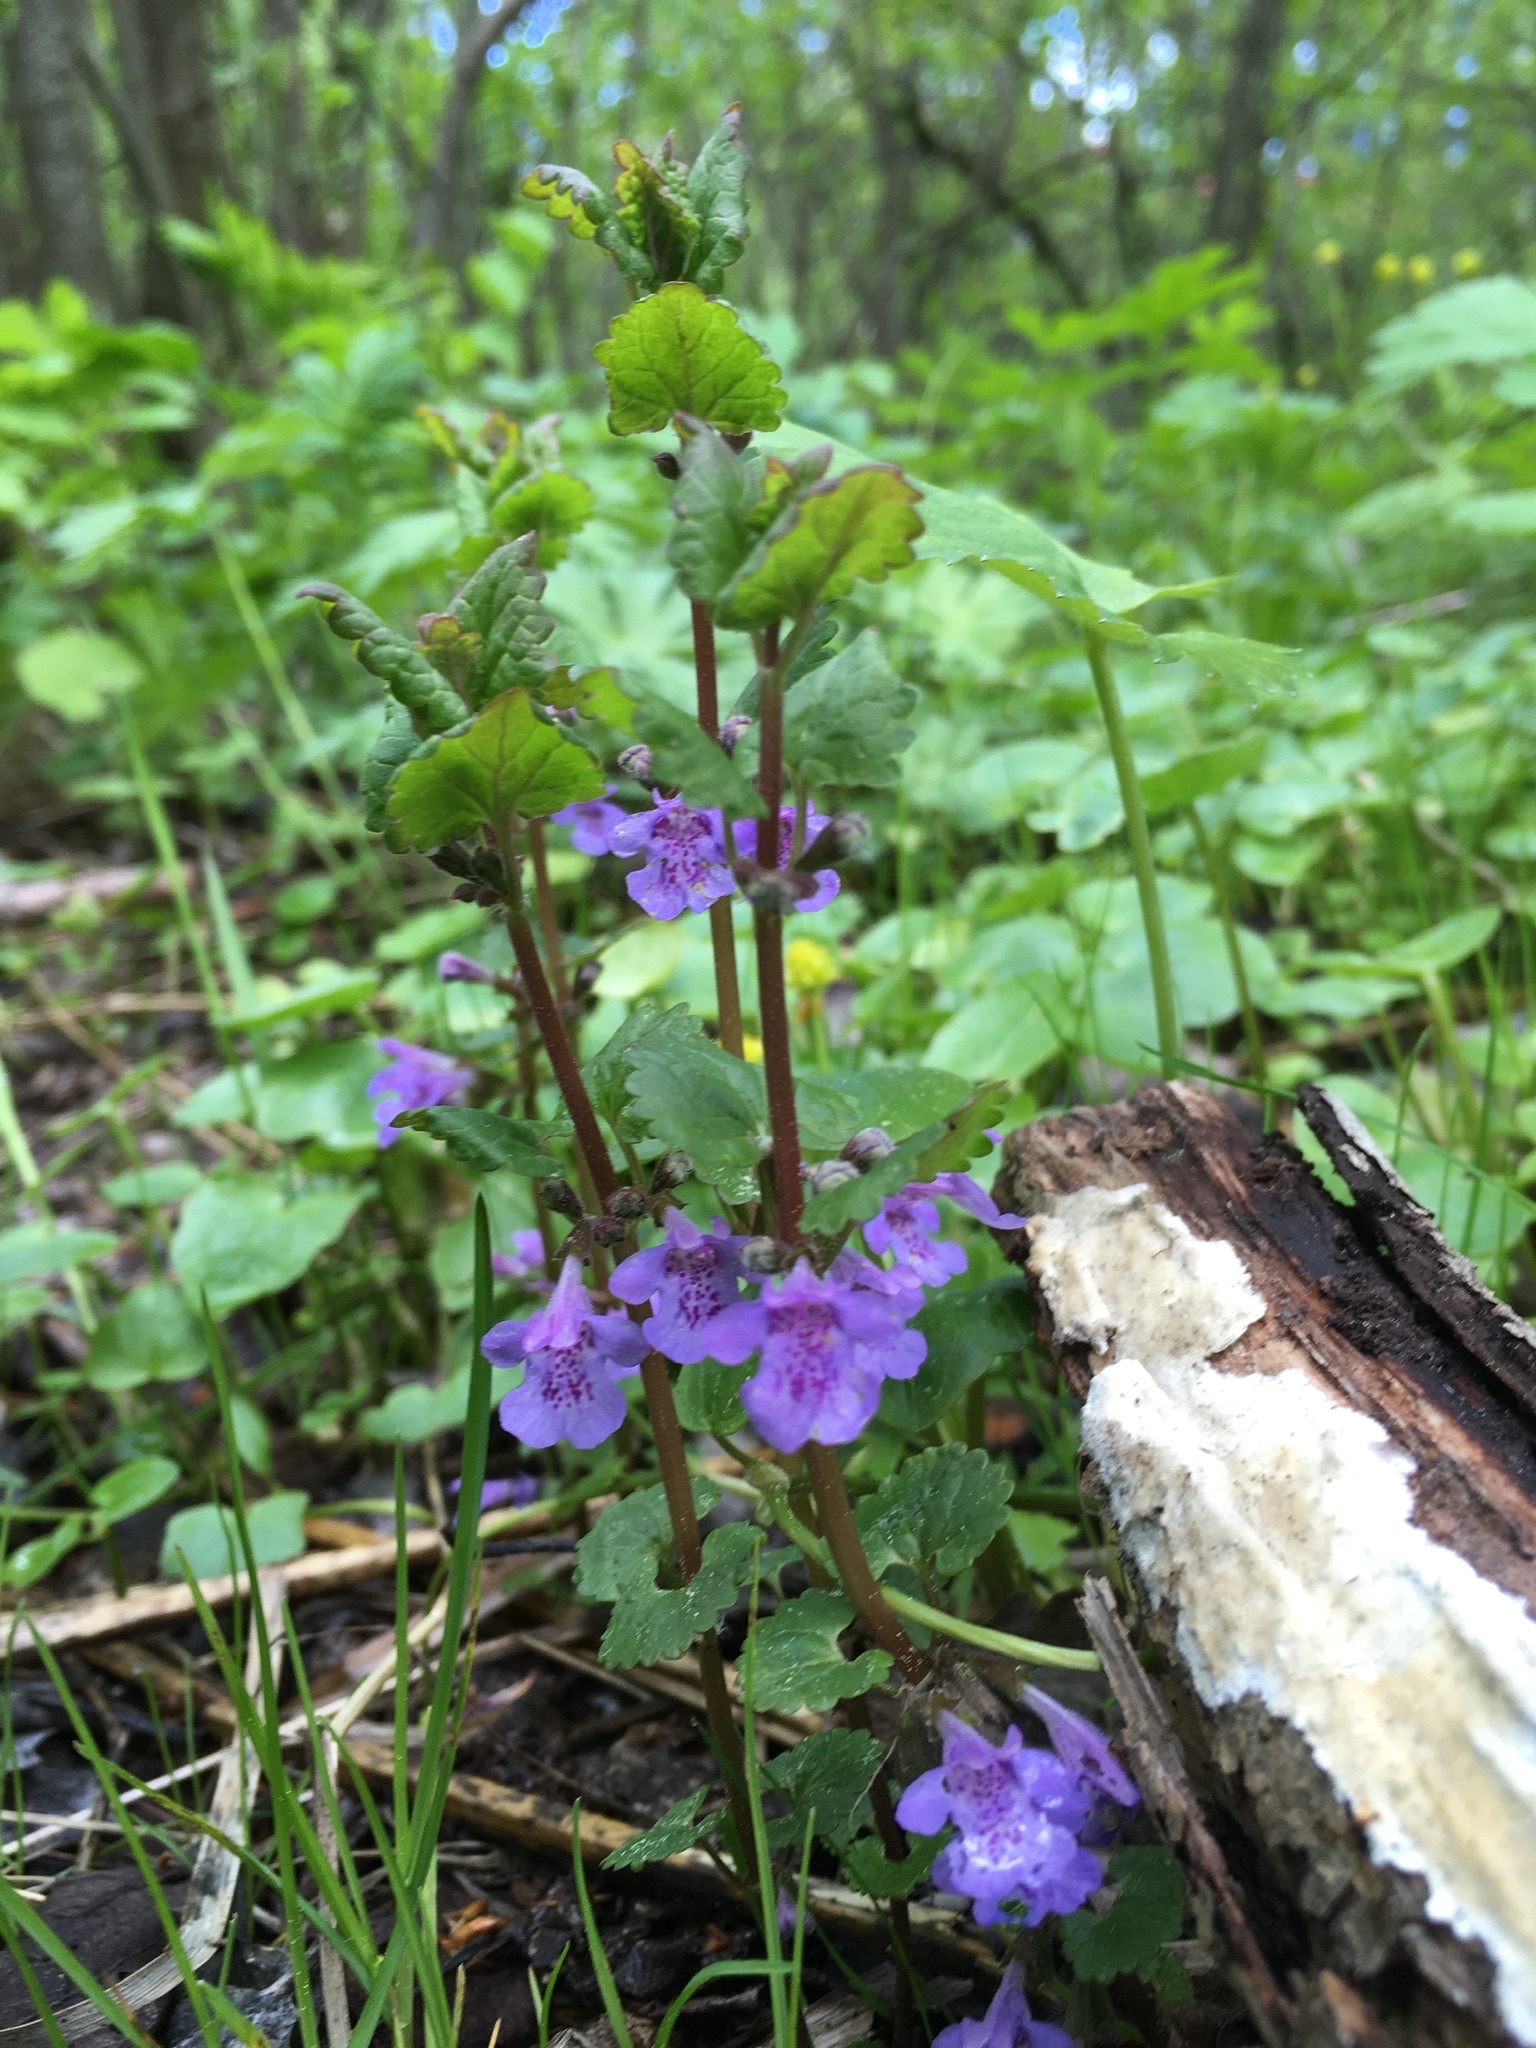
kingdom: Plantae
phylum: Tracheophyta
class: Magnoliopsida
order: Lamiales
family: Lamiaceae
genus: Glechoma
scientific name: Glechoma hederacea
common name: Ground ivy
